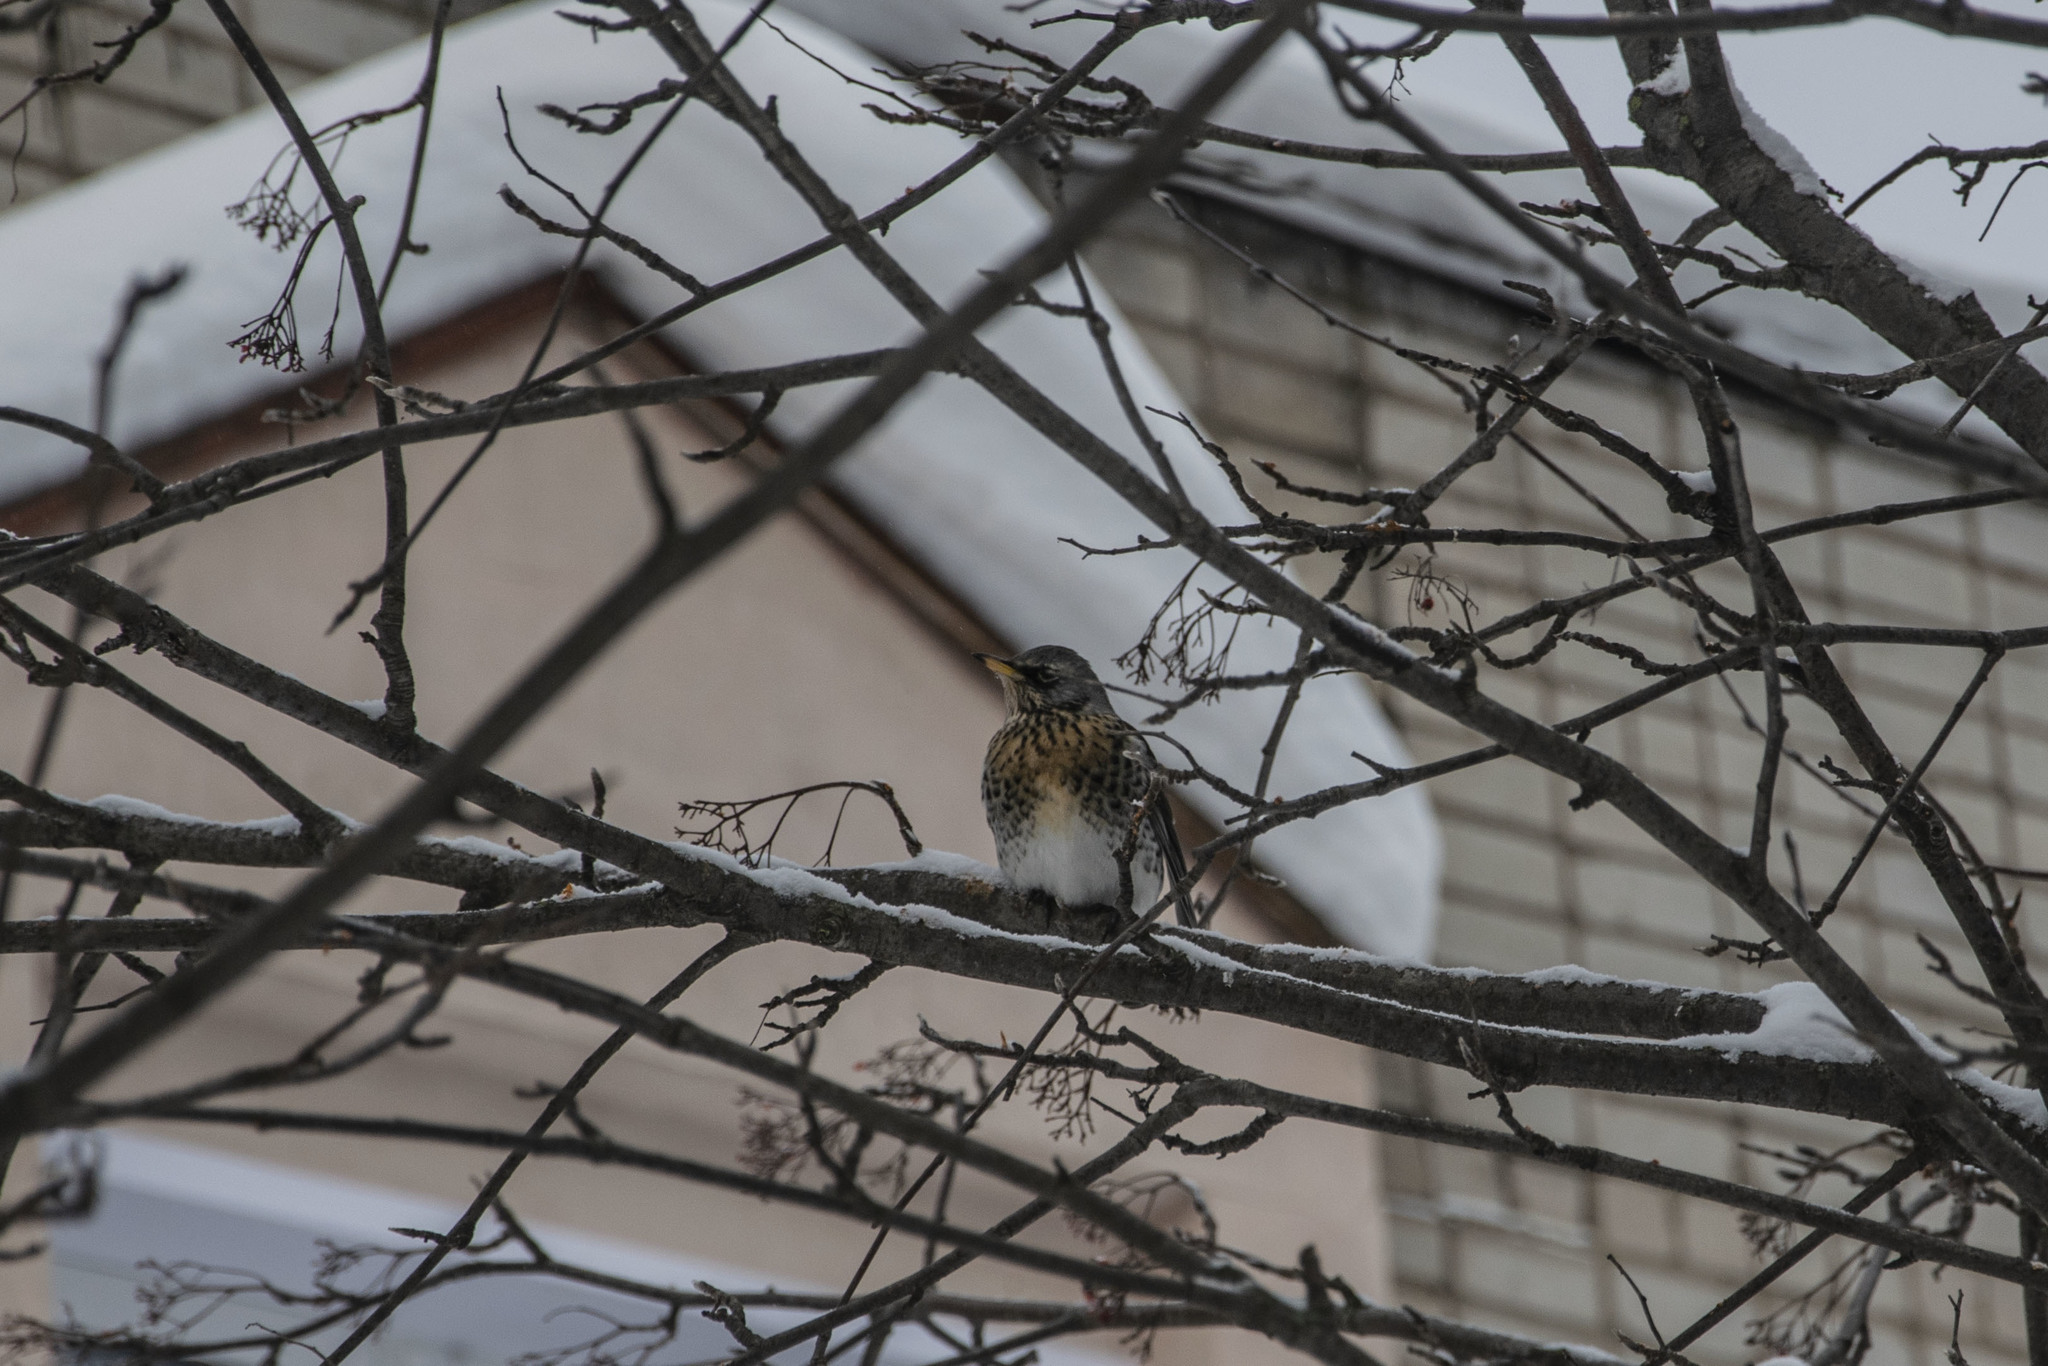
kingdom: Animalia
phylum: Chordata
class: Aves
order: Passeriformes
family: Turdidae
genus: Turdus
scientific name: Turdus pilaris
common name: Fieldfare
